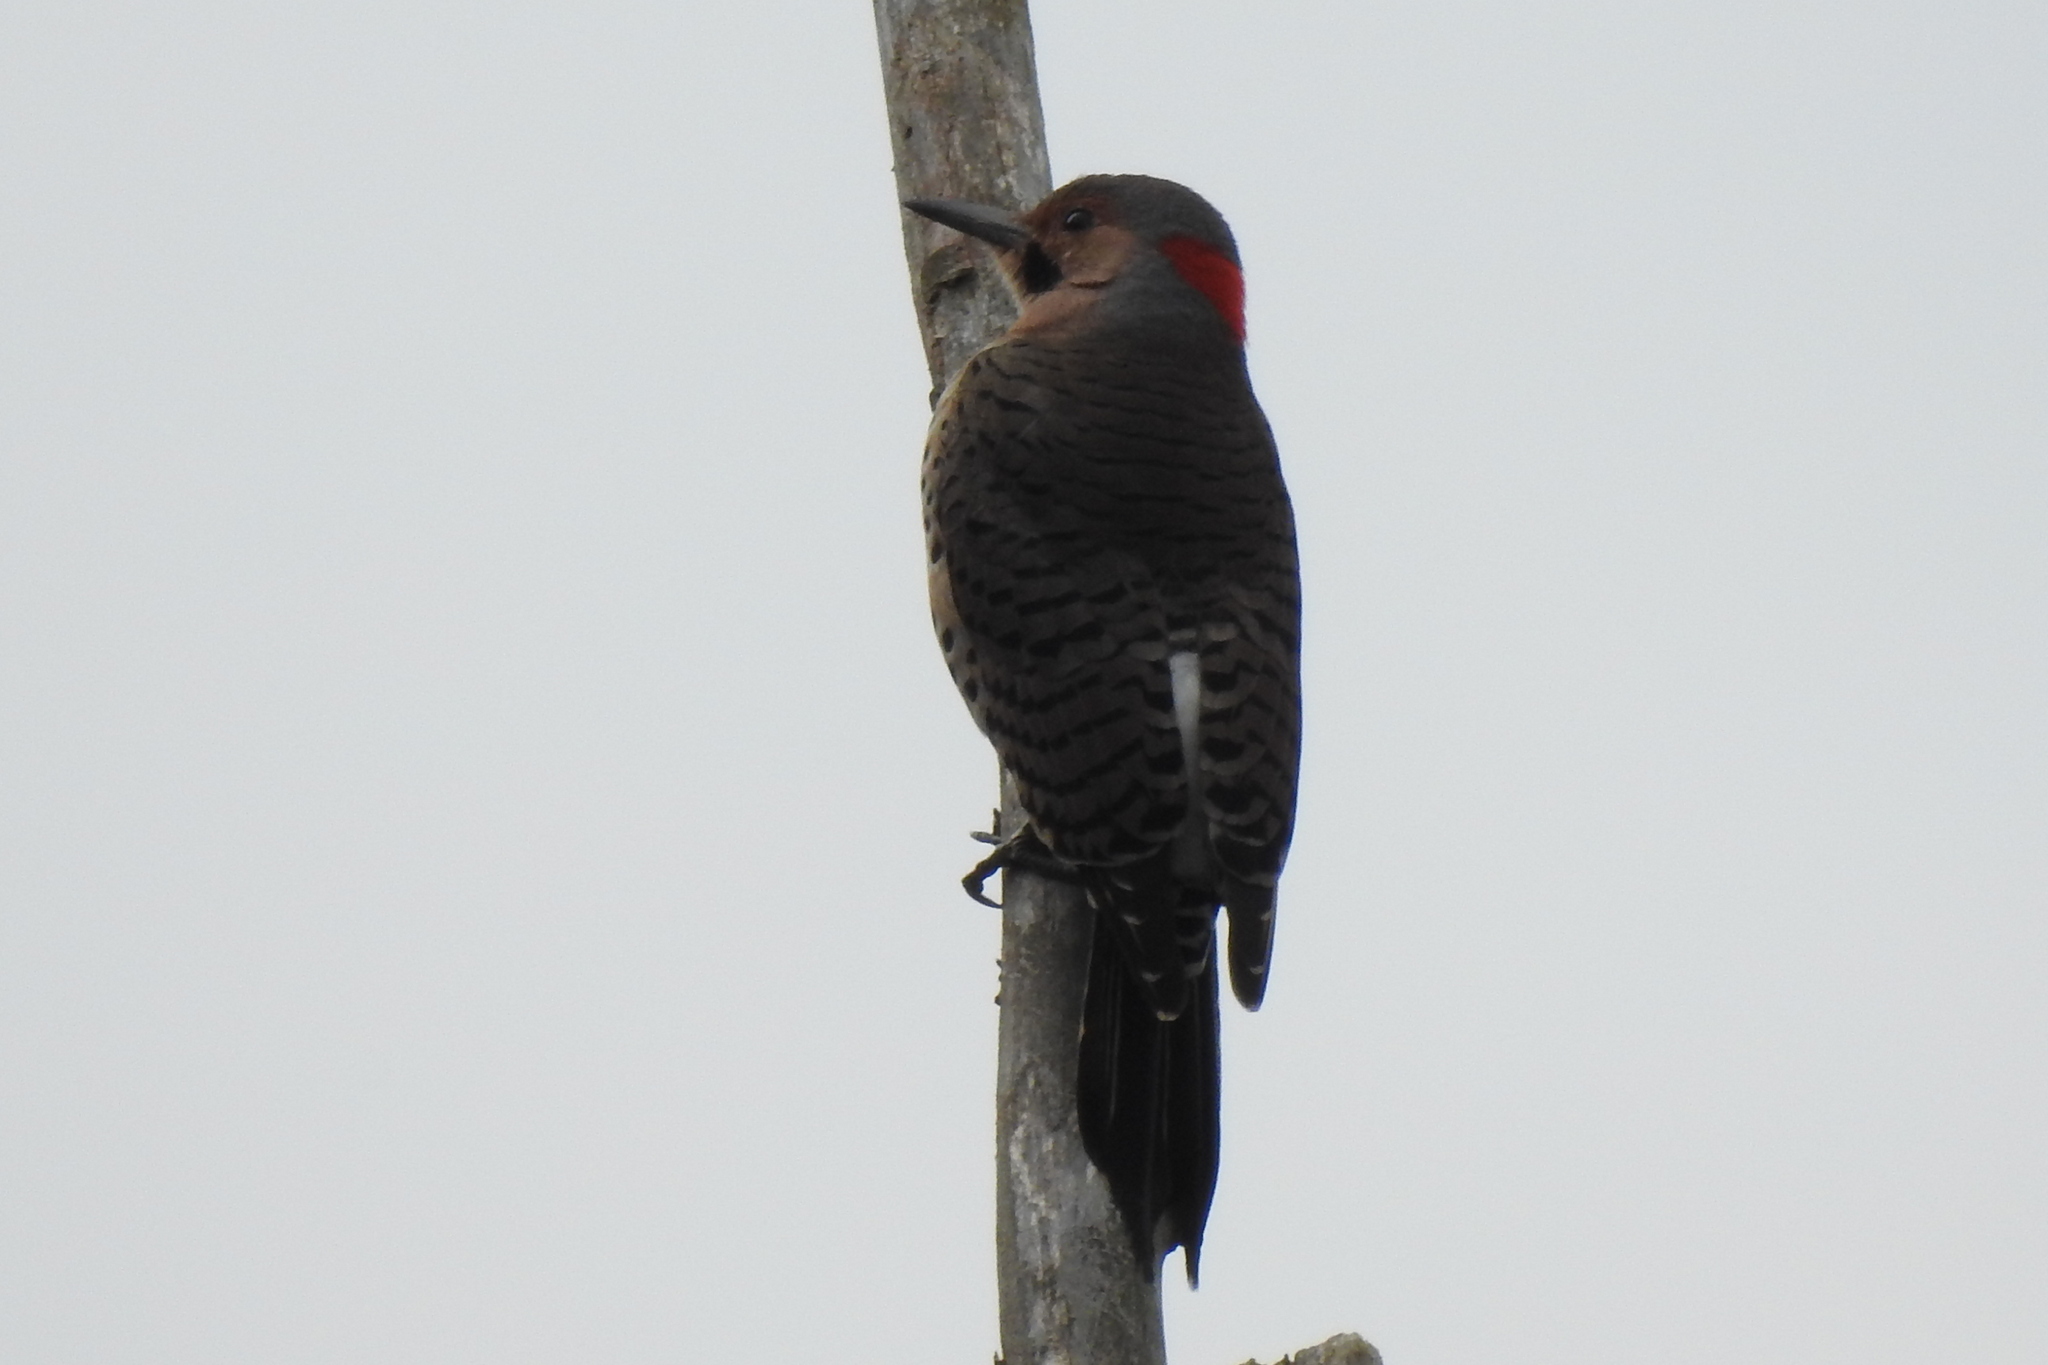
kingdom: Animalia
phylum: Chordata
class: Aves
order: Piciformes
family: Picidae
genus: Colaptes
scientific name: Colaptes auratus
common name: Northern flicker
